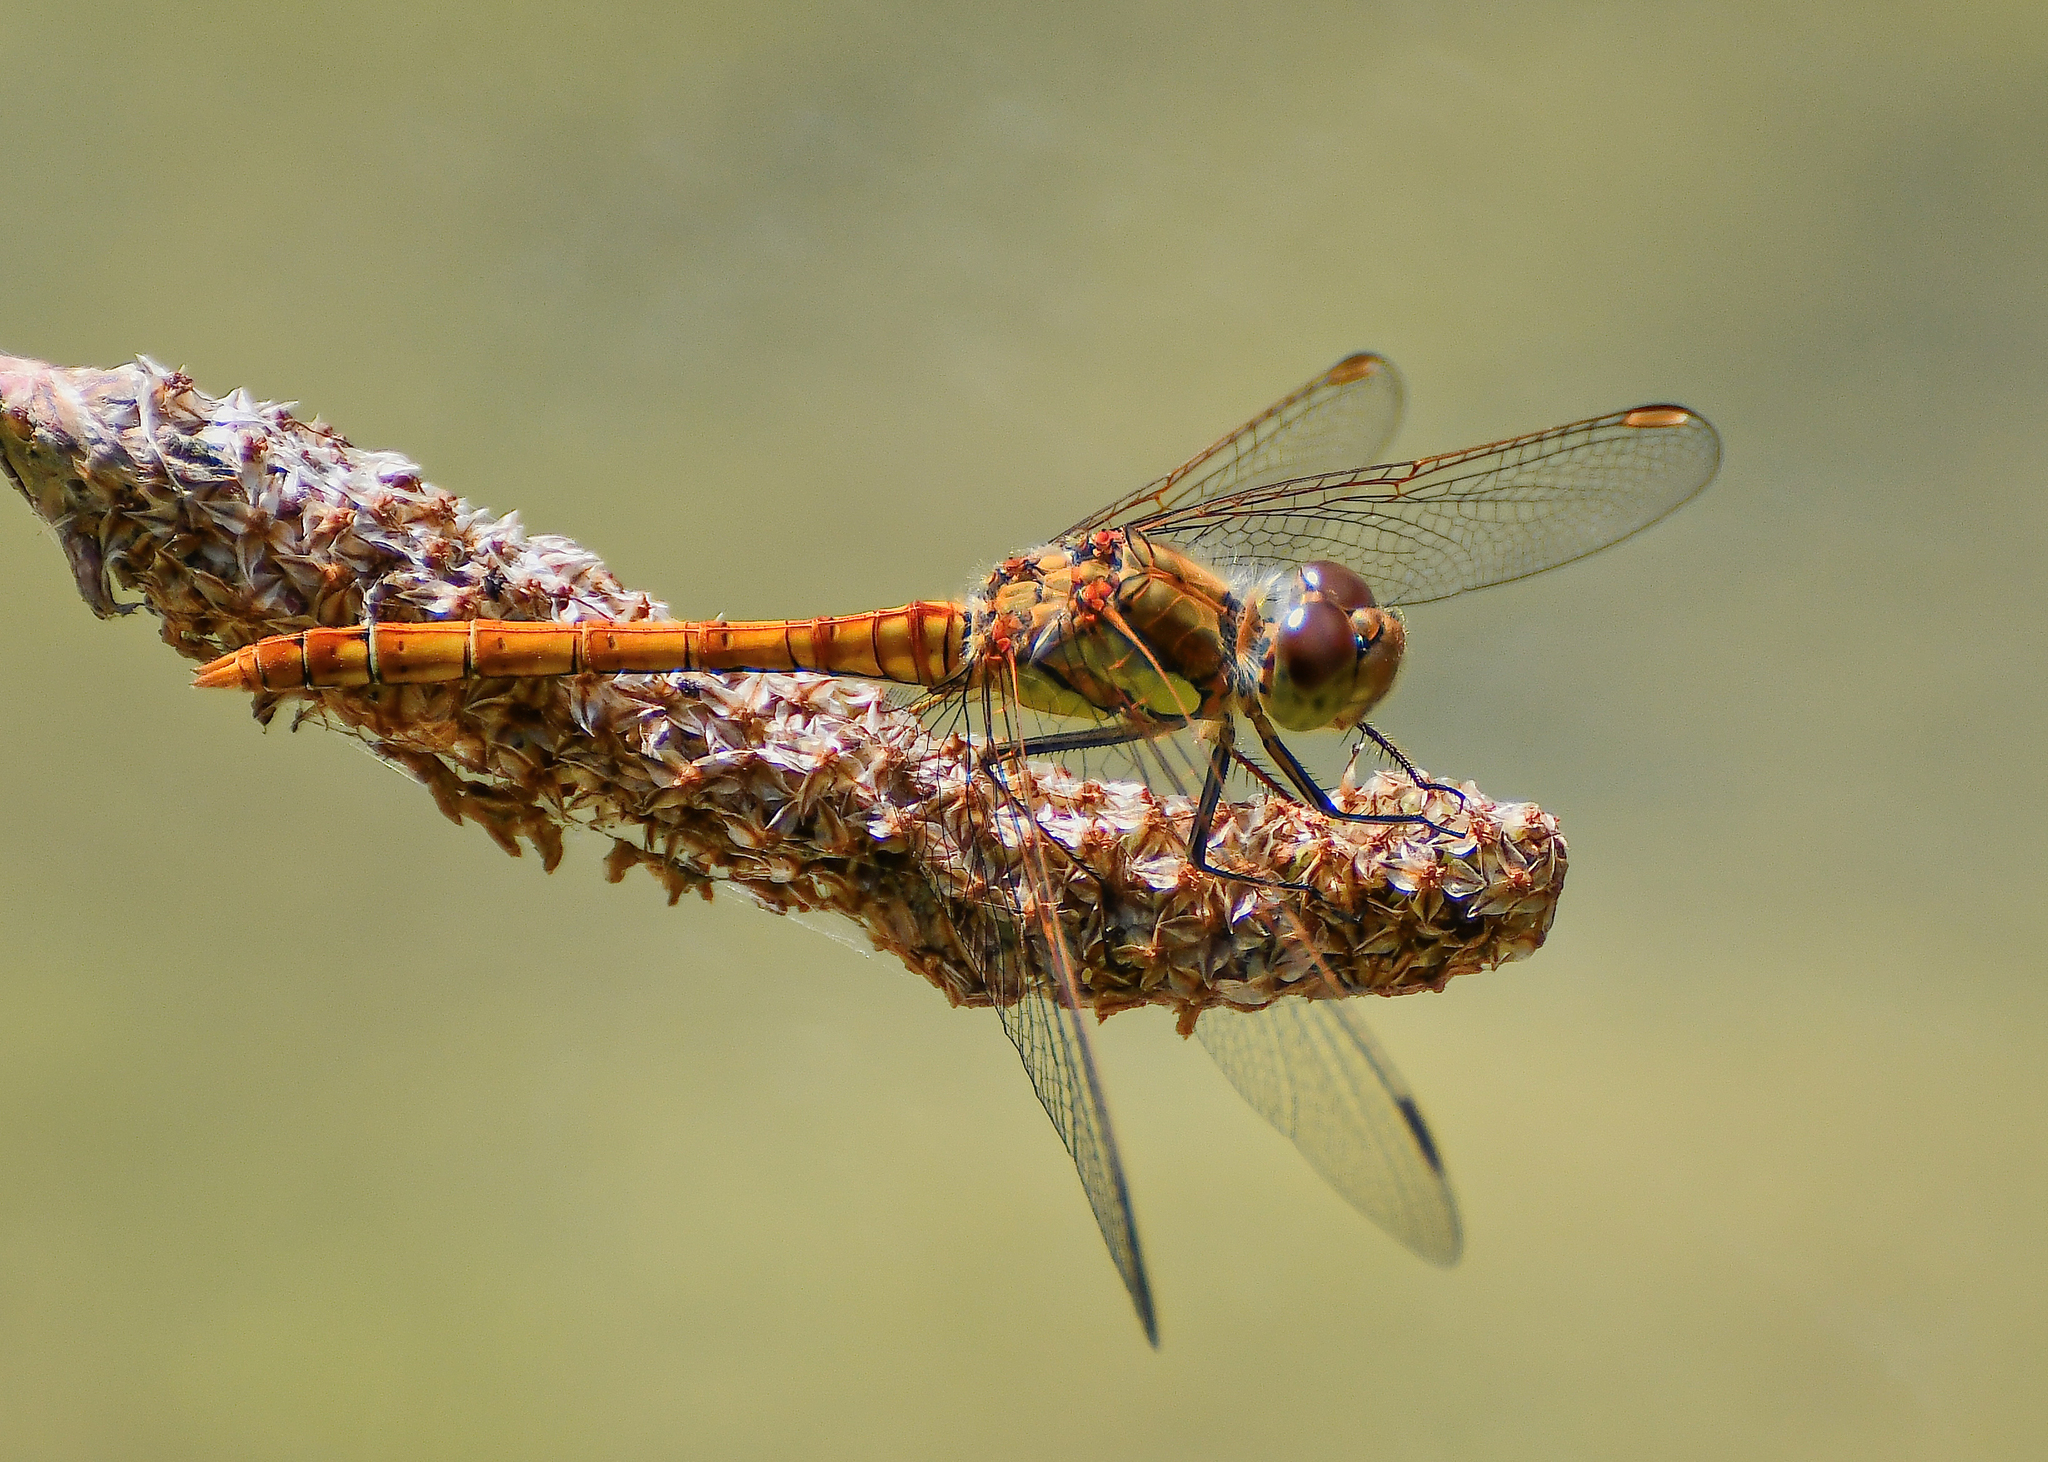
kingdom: Animalia
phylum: Arthropoda
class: Insecta
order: Odonata
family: Libellulidae
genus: Sympetrum
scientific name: Sympetrum striolatum
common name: Common darter
